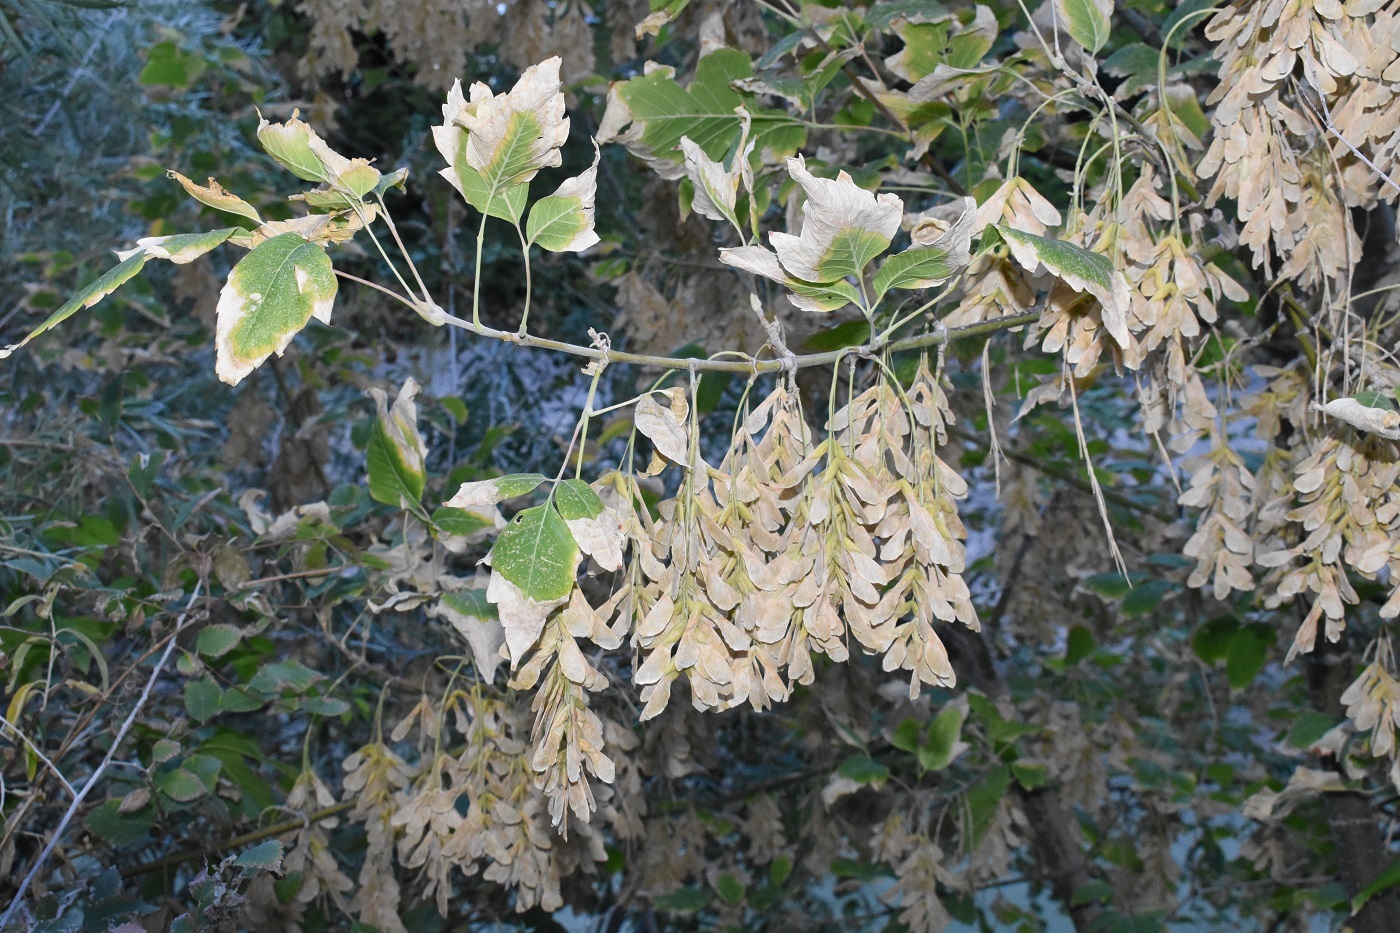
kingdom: Plantae
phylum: Tracheophyta
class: Magnoliopsida
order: Sapindales
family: Sapindaceae
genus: Acer
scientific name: Acer negundo
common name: Ashleaf maple
